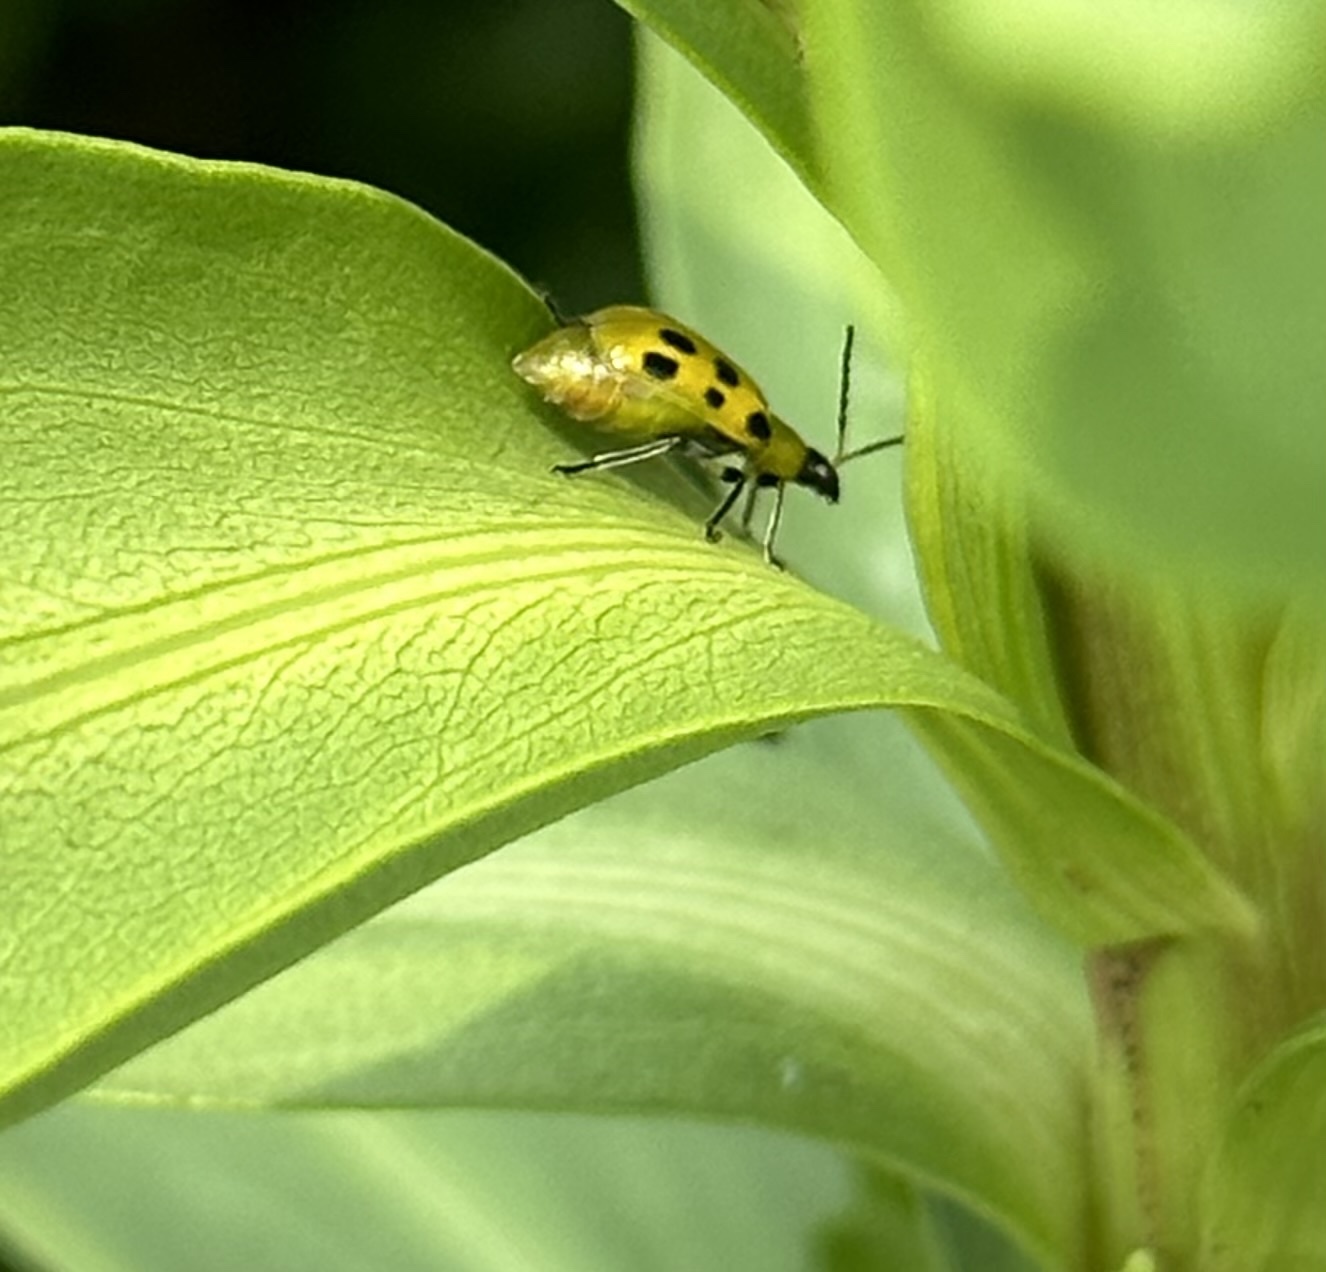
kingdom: Animalia
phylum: Arthropoda
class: Insecta
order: Coleoptera
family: Chrysomelidae
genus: Diabrotica
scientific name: Diabrotica undecimpunctata
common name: Spotted cucumber beetle
